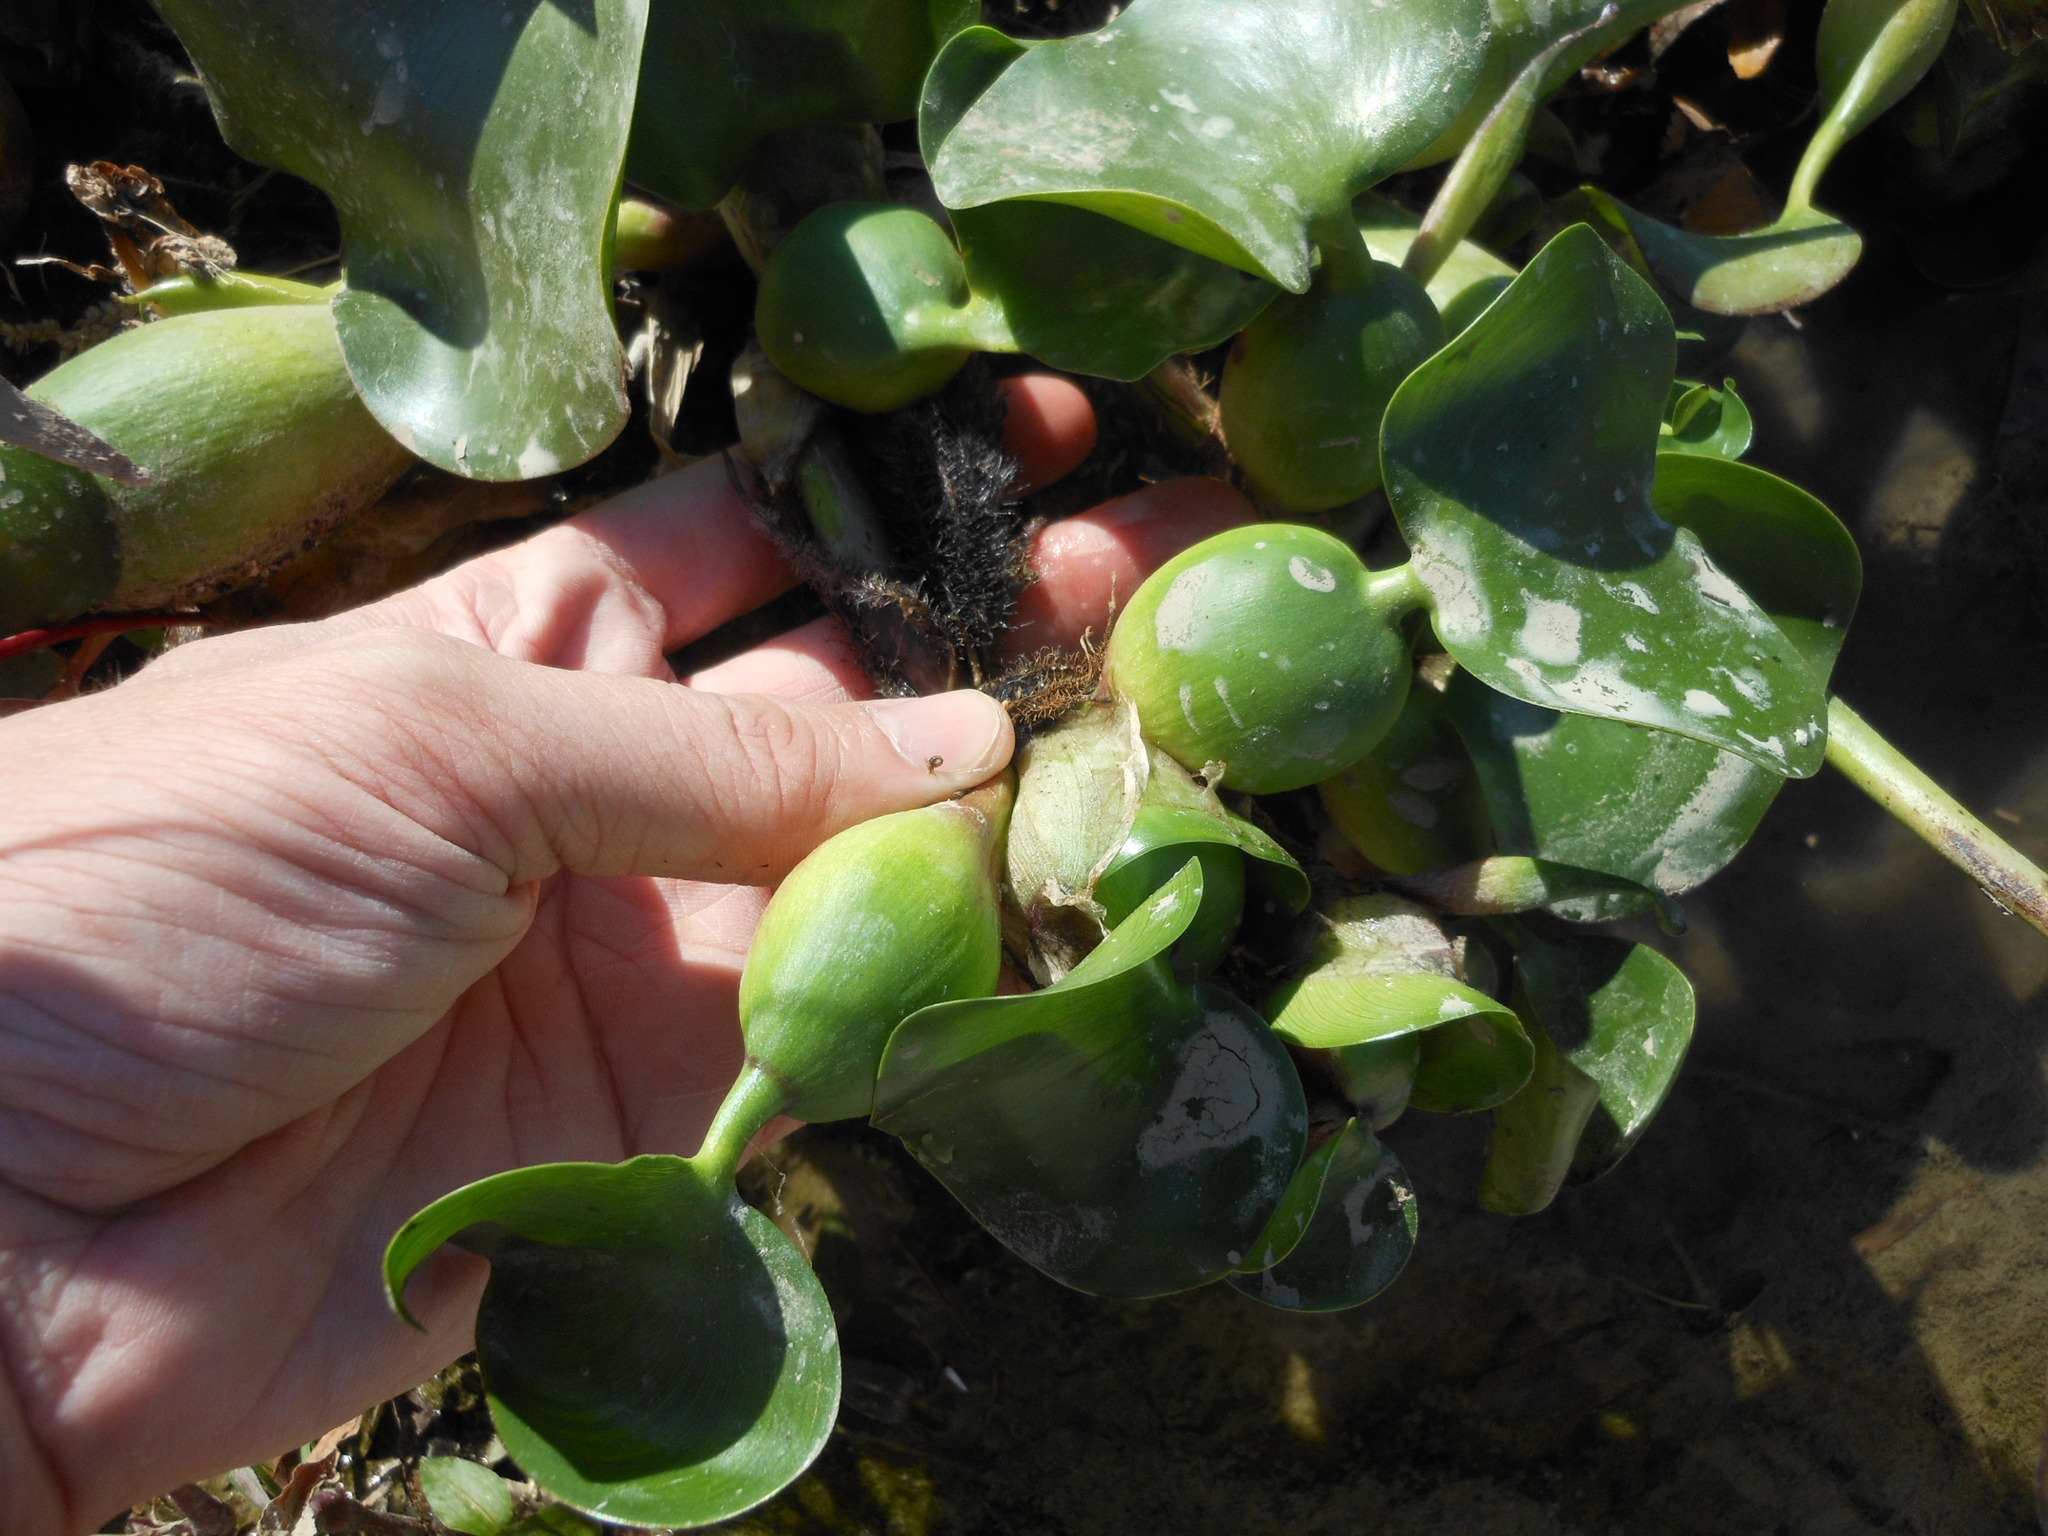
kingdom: Plantae
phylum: Tracheophyta
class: Liliopsida
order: Commelinales
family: Pontederiaceae
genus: Pontederia
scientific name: Pontederia crassipes
